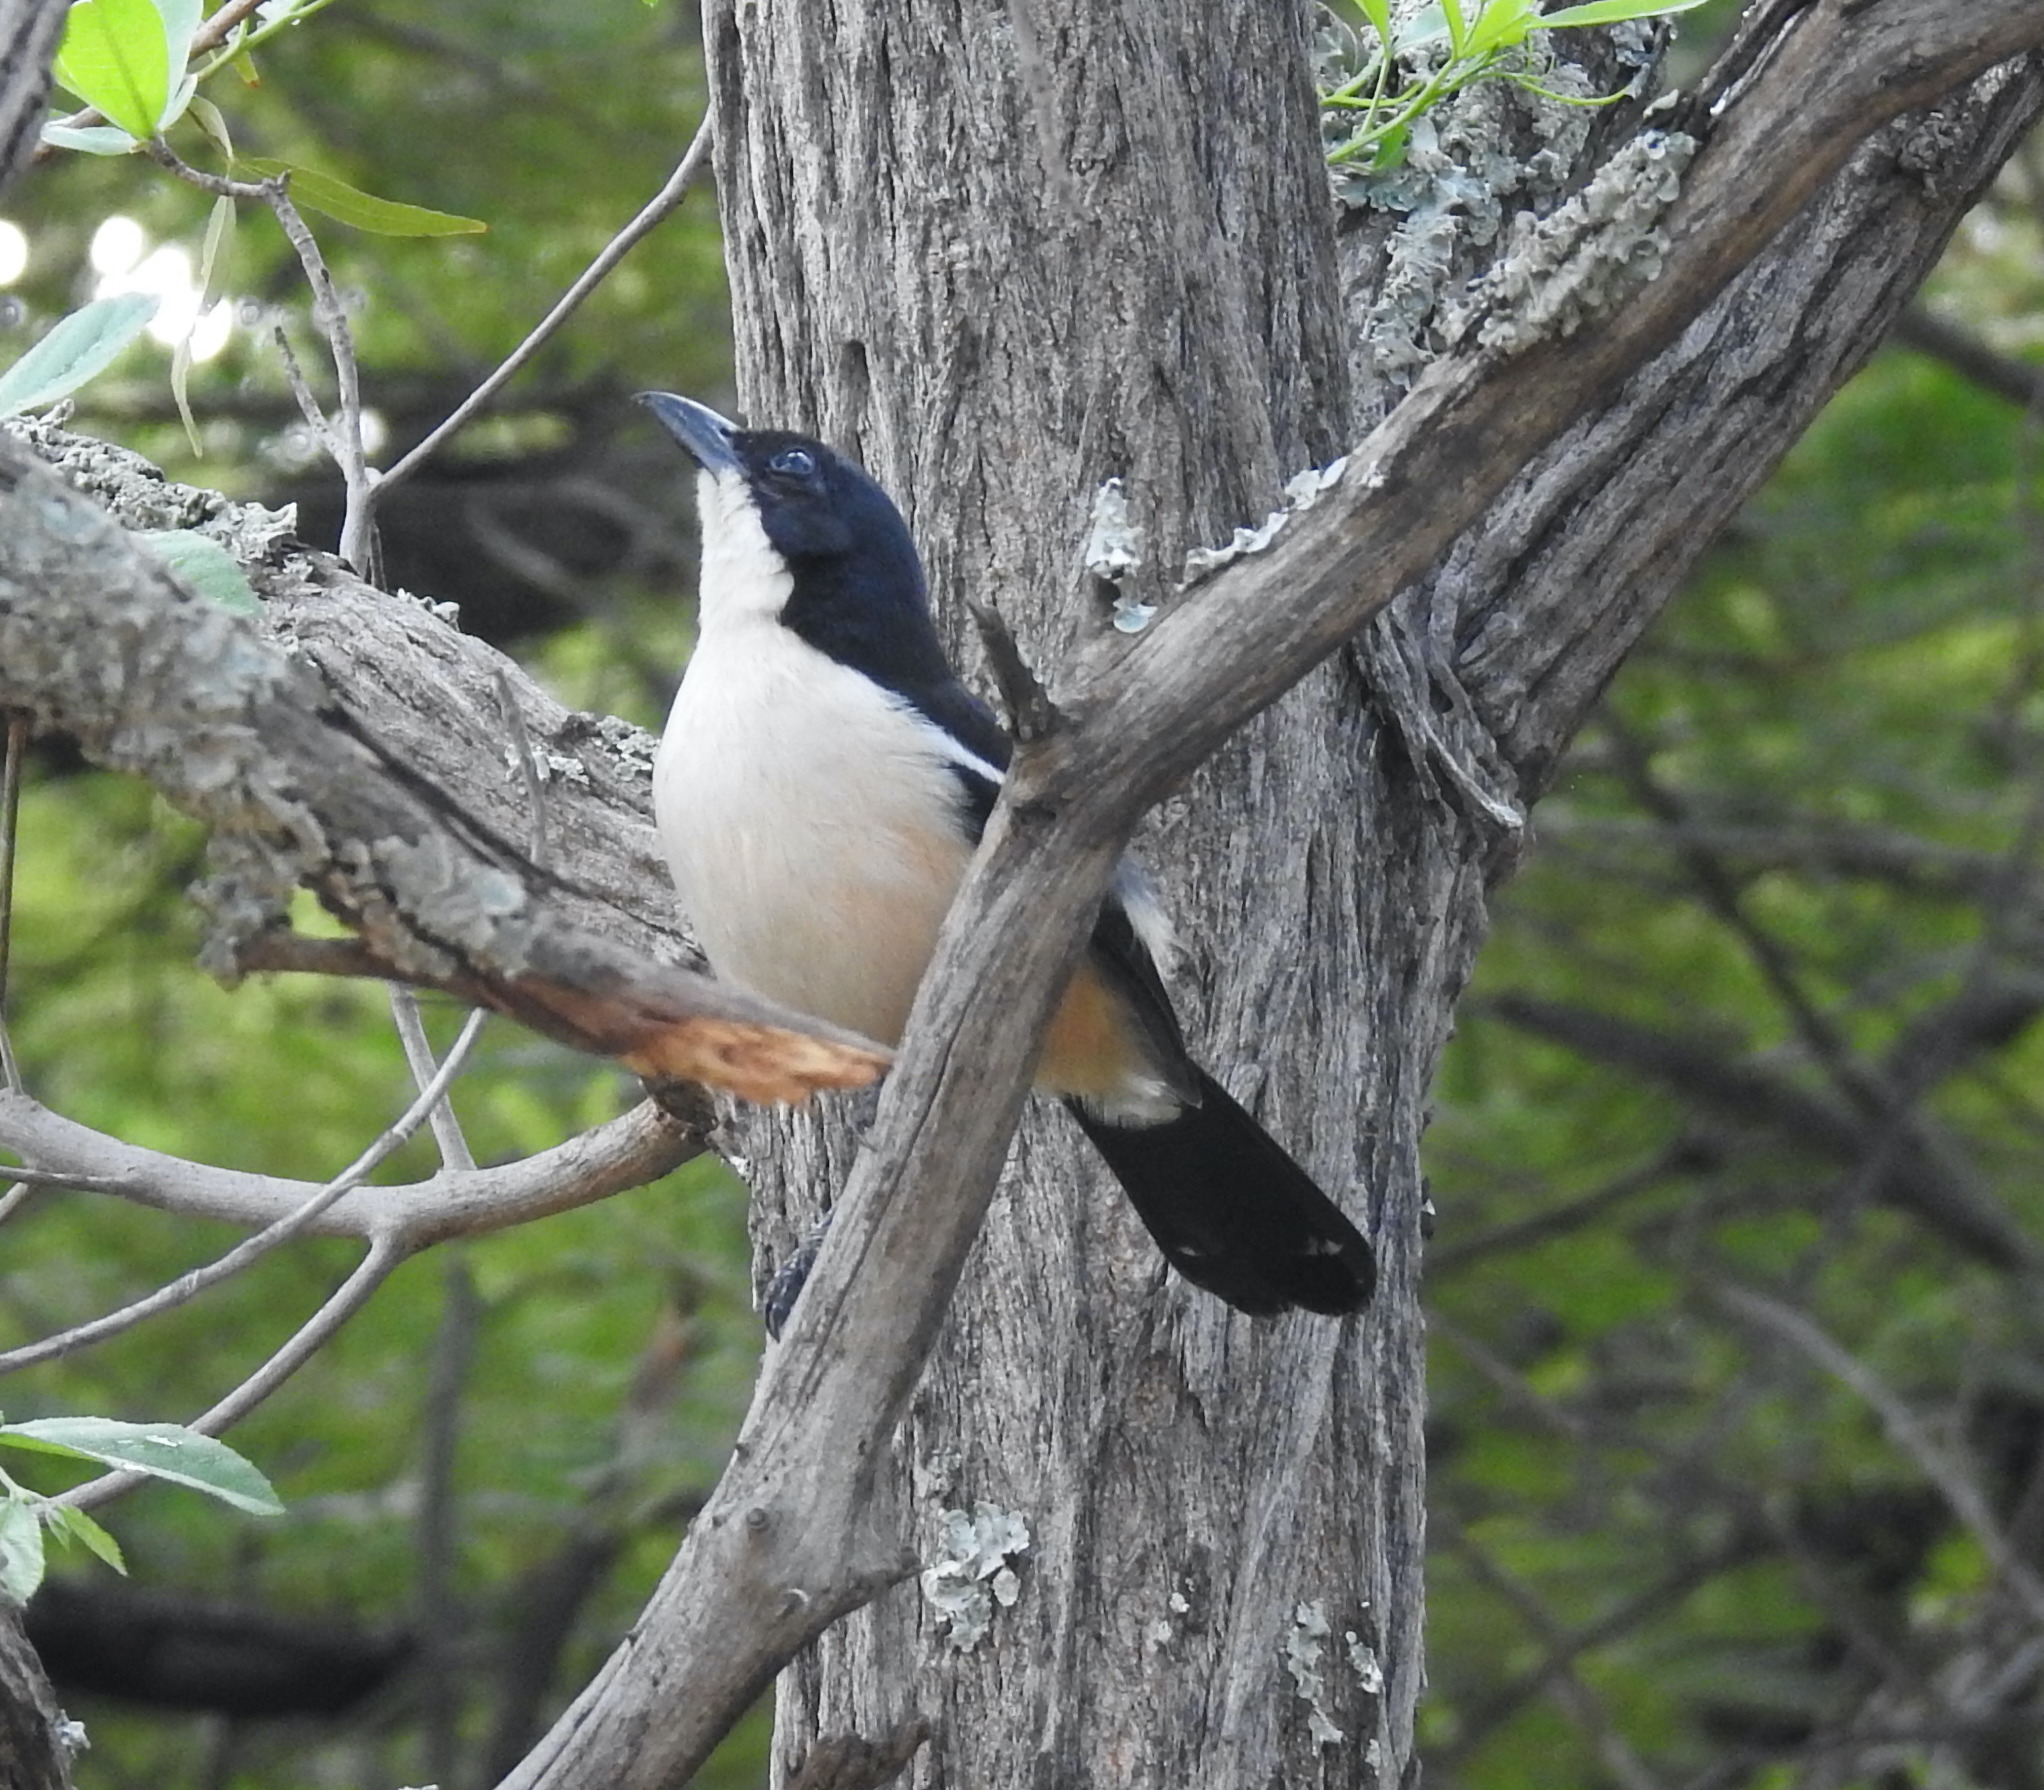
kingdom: Animalia
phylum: Chordata
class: Aves
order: Passeriformes
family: Malaconotidae
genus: Laniarius
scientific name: Laniarius ferrugineus
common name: Southern boubou
